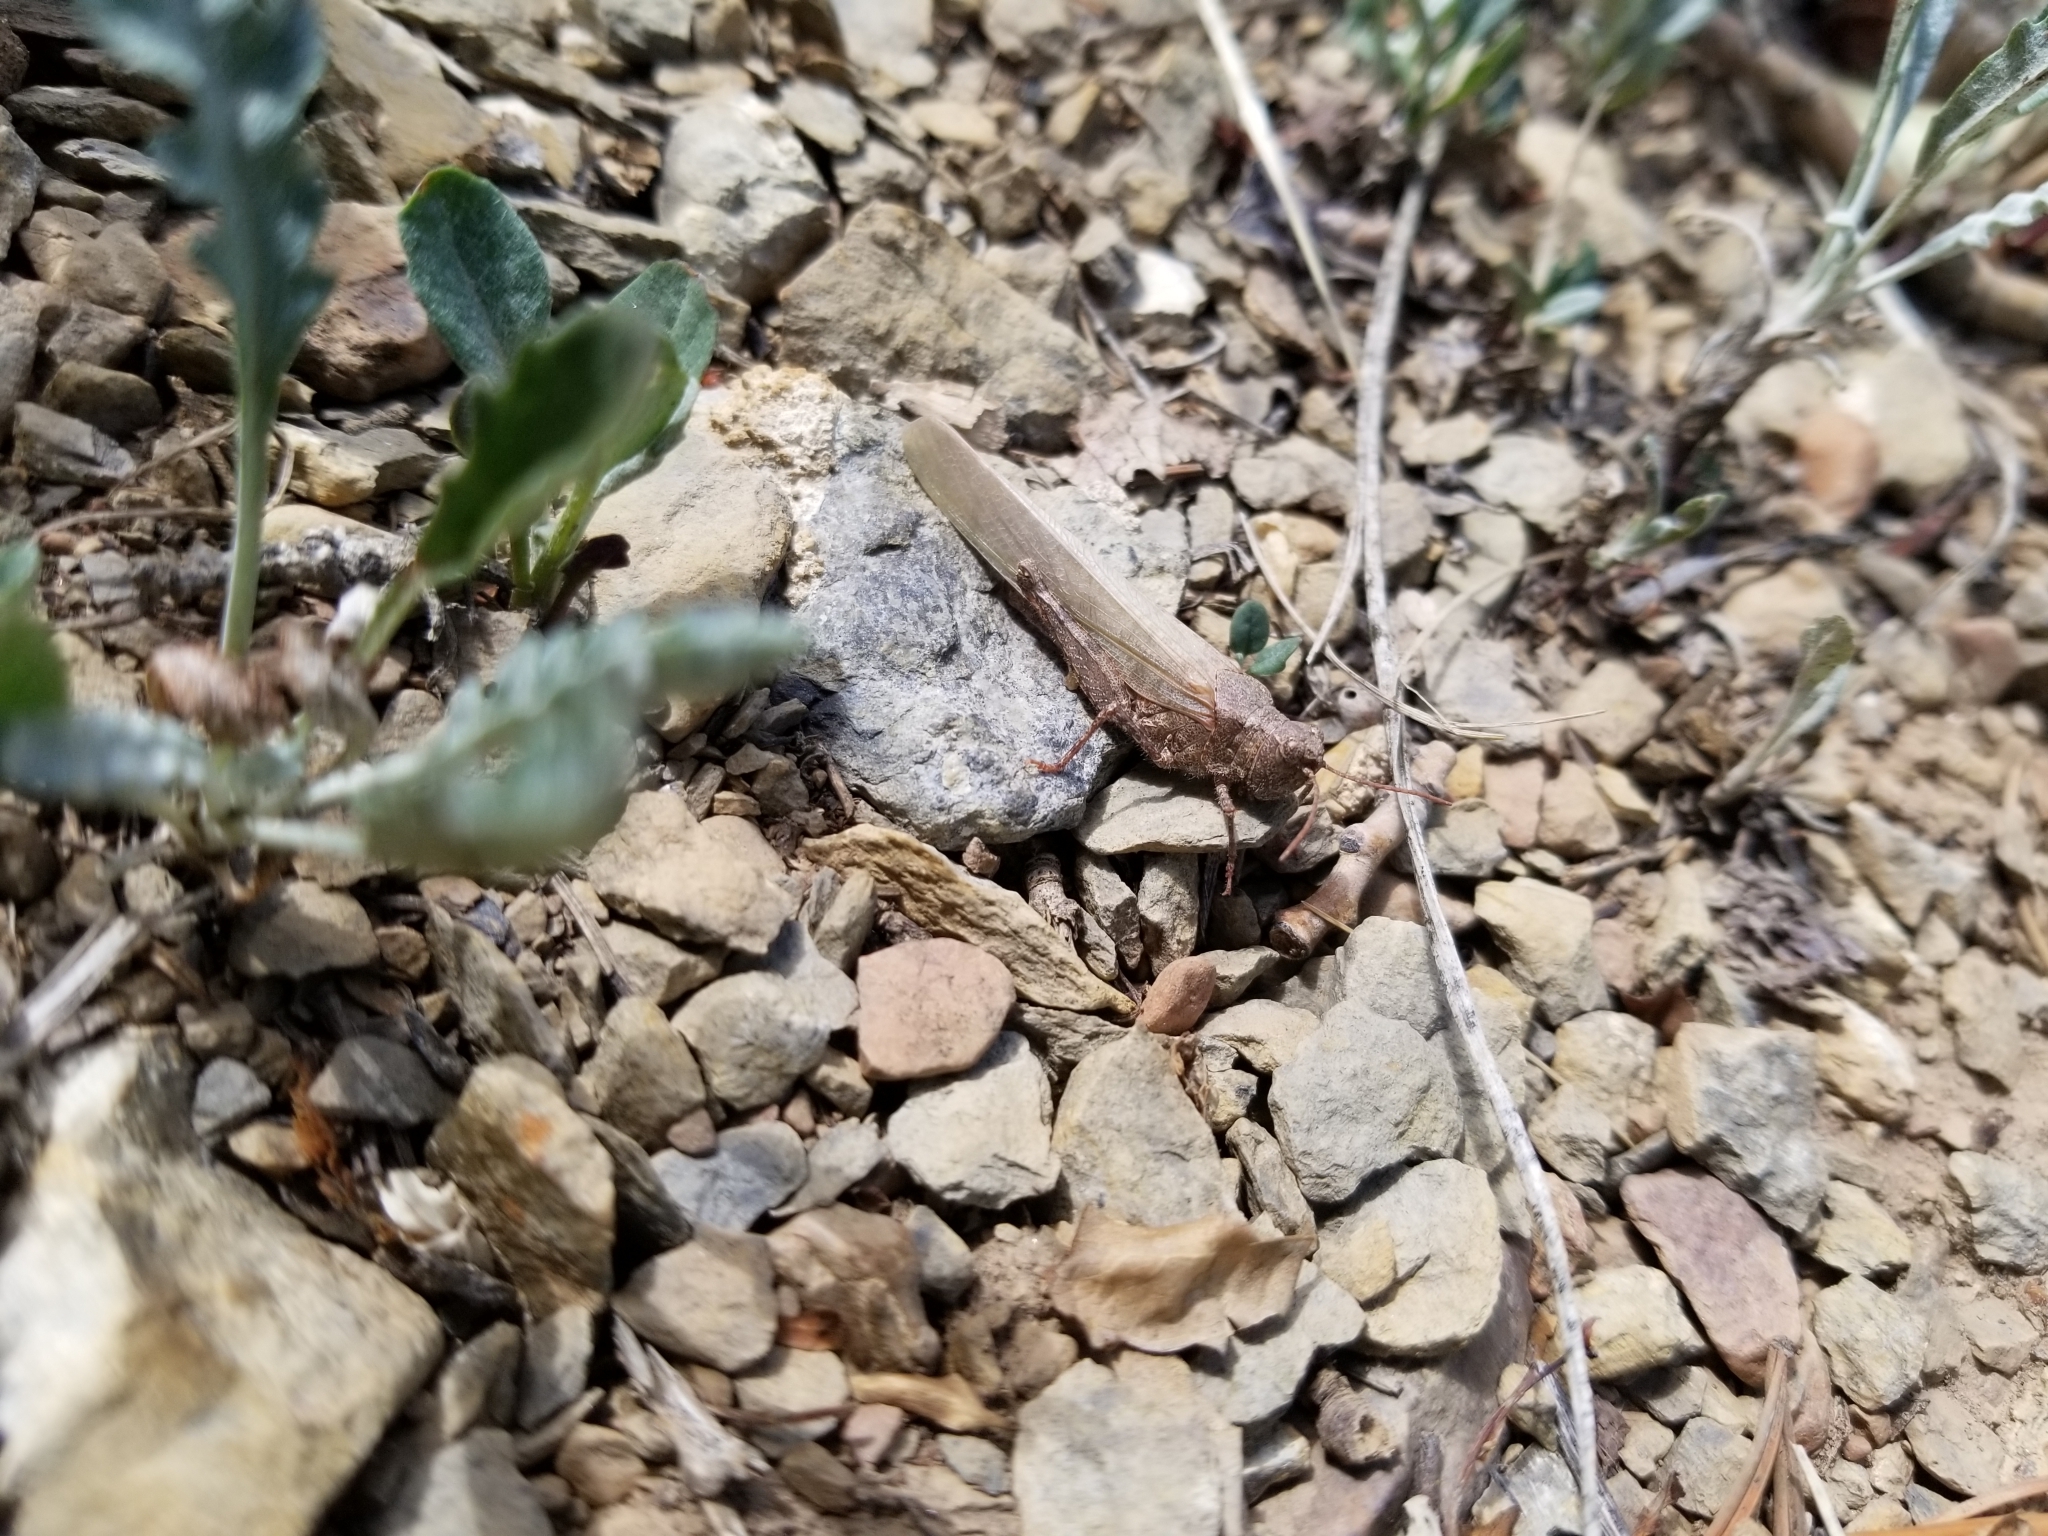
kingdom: Animalia
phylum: Arthropoda
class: Insecta
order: Orthoptera
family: Acrididae
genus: Trimerotropis
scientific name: Trimerotropis verruculata
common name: Crackling forest grasshopper
